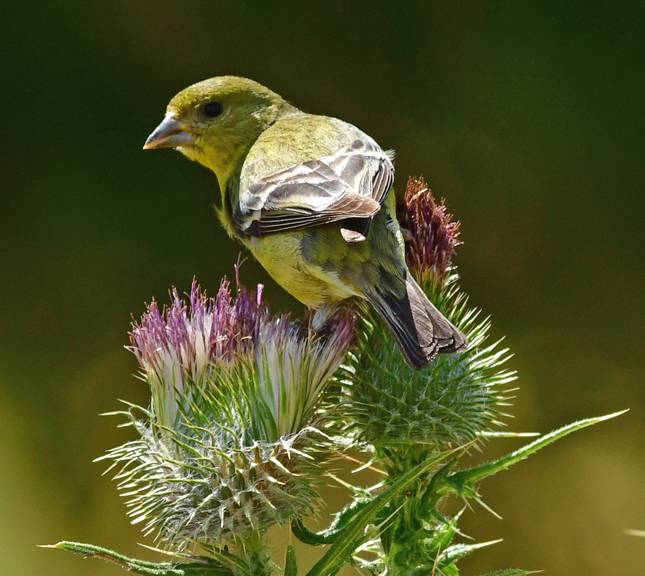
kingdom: Animalia
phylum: Chordata
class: Aves
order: Passeriformes
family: Fringillidae
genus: Spinus
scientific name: Spinus psaltria
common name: Lesser goldfinch
